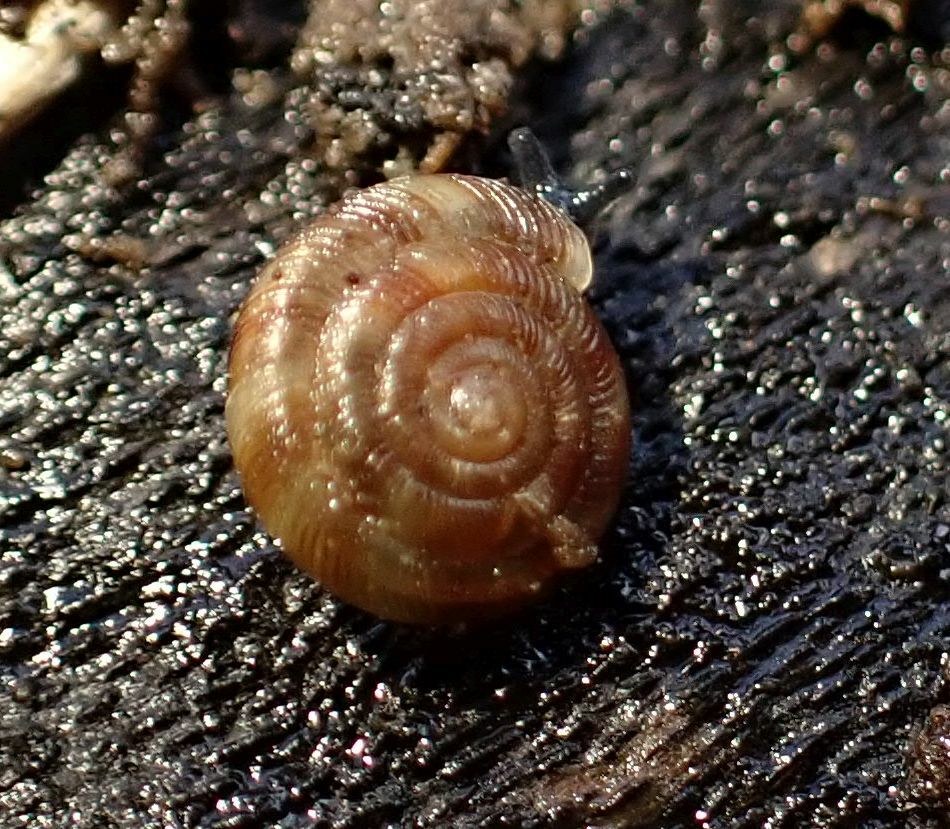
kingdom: Animalia
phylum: Mollusca
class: Gastropoda
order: Stylommatophora
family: Discidae
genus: Discus
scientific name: Discus rotundatus
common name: Rounded snail
